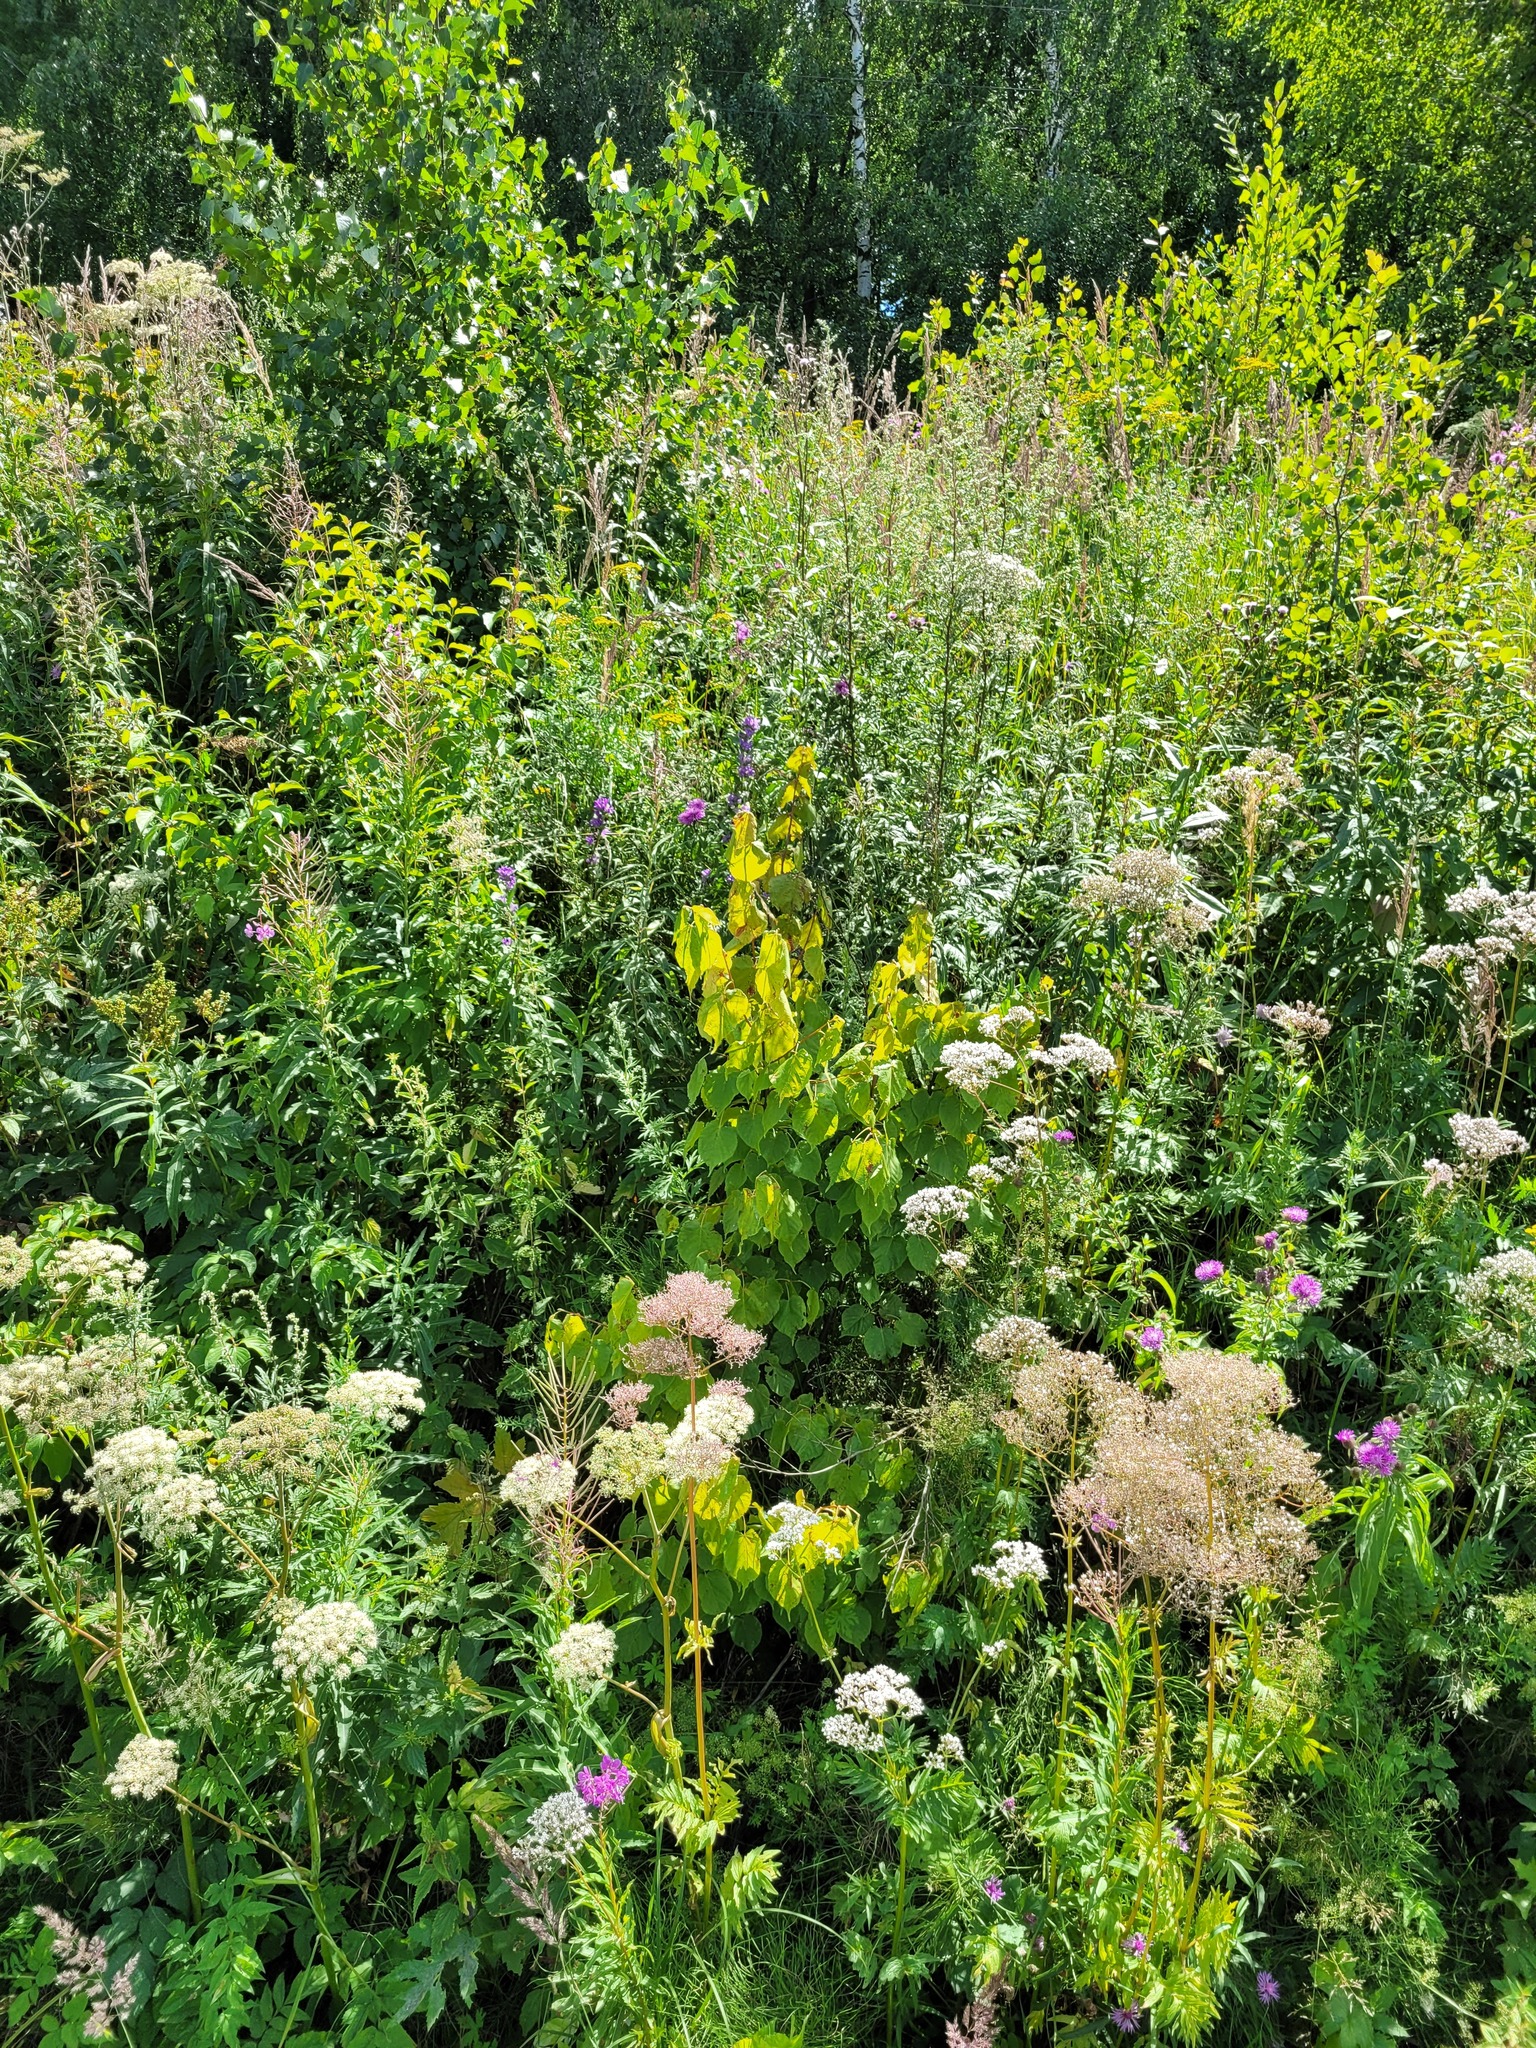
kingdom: Plantae
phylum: Tracheophyta
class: Magnoliopsida
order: Malvales
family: Malvaceae
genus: Tilia
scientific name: Tilia cordata
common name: Small-leaved lime
